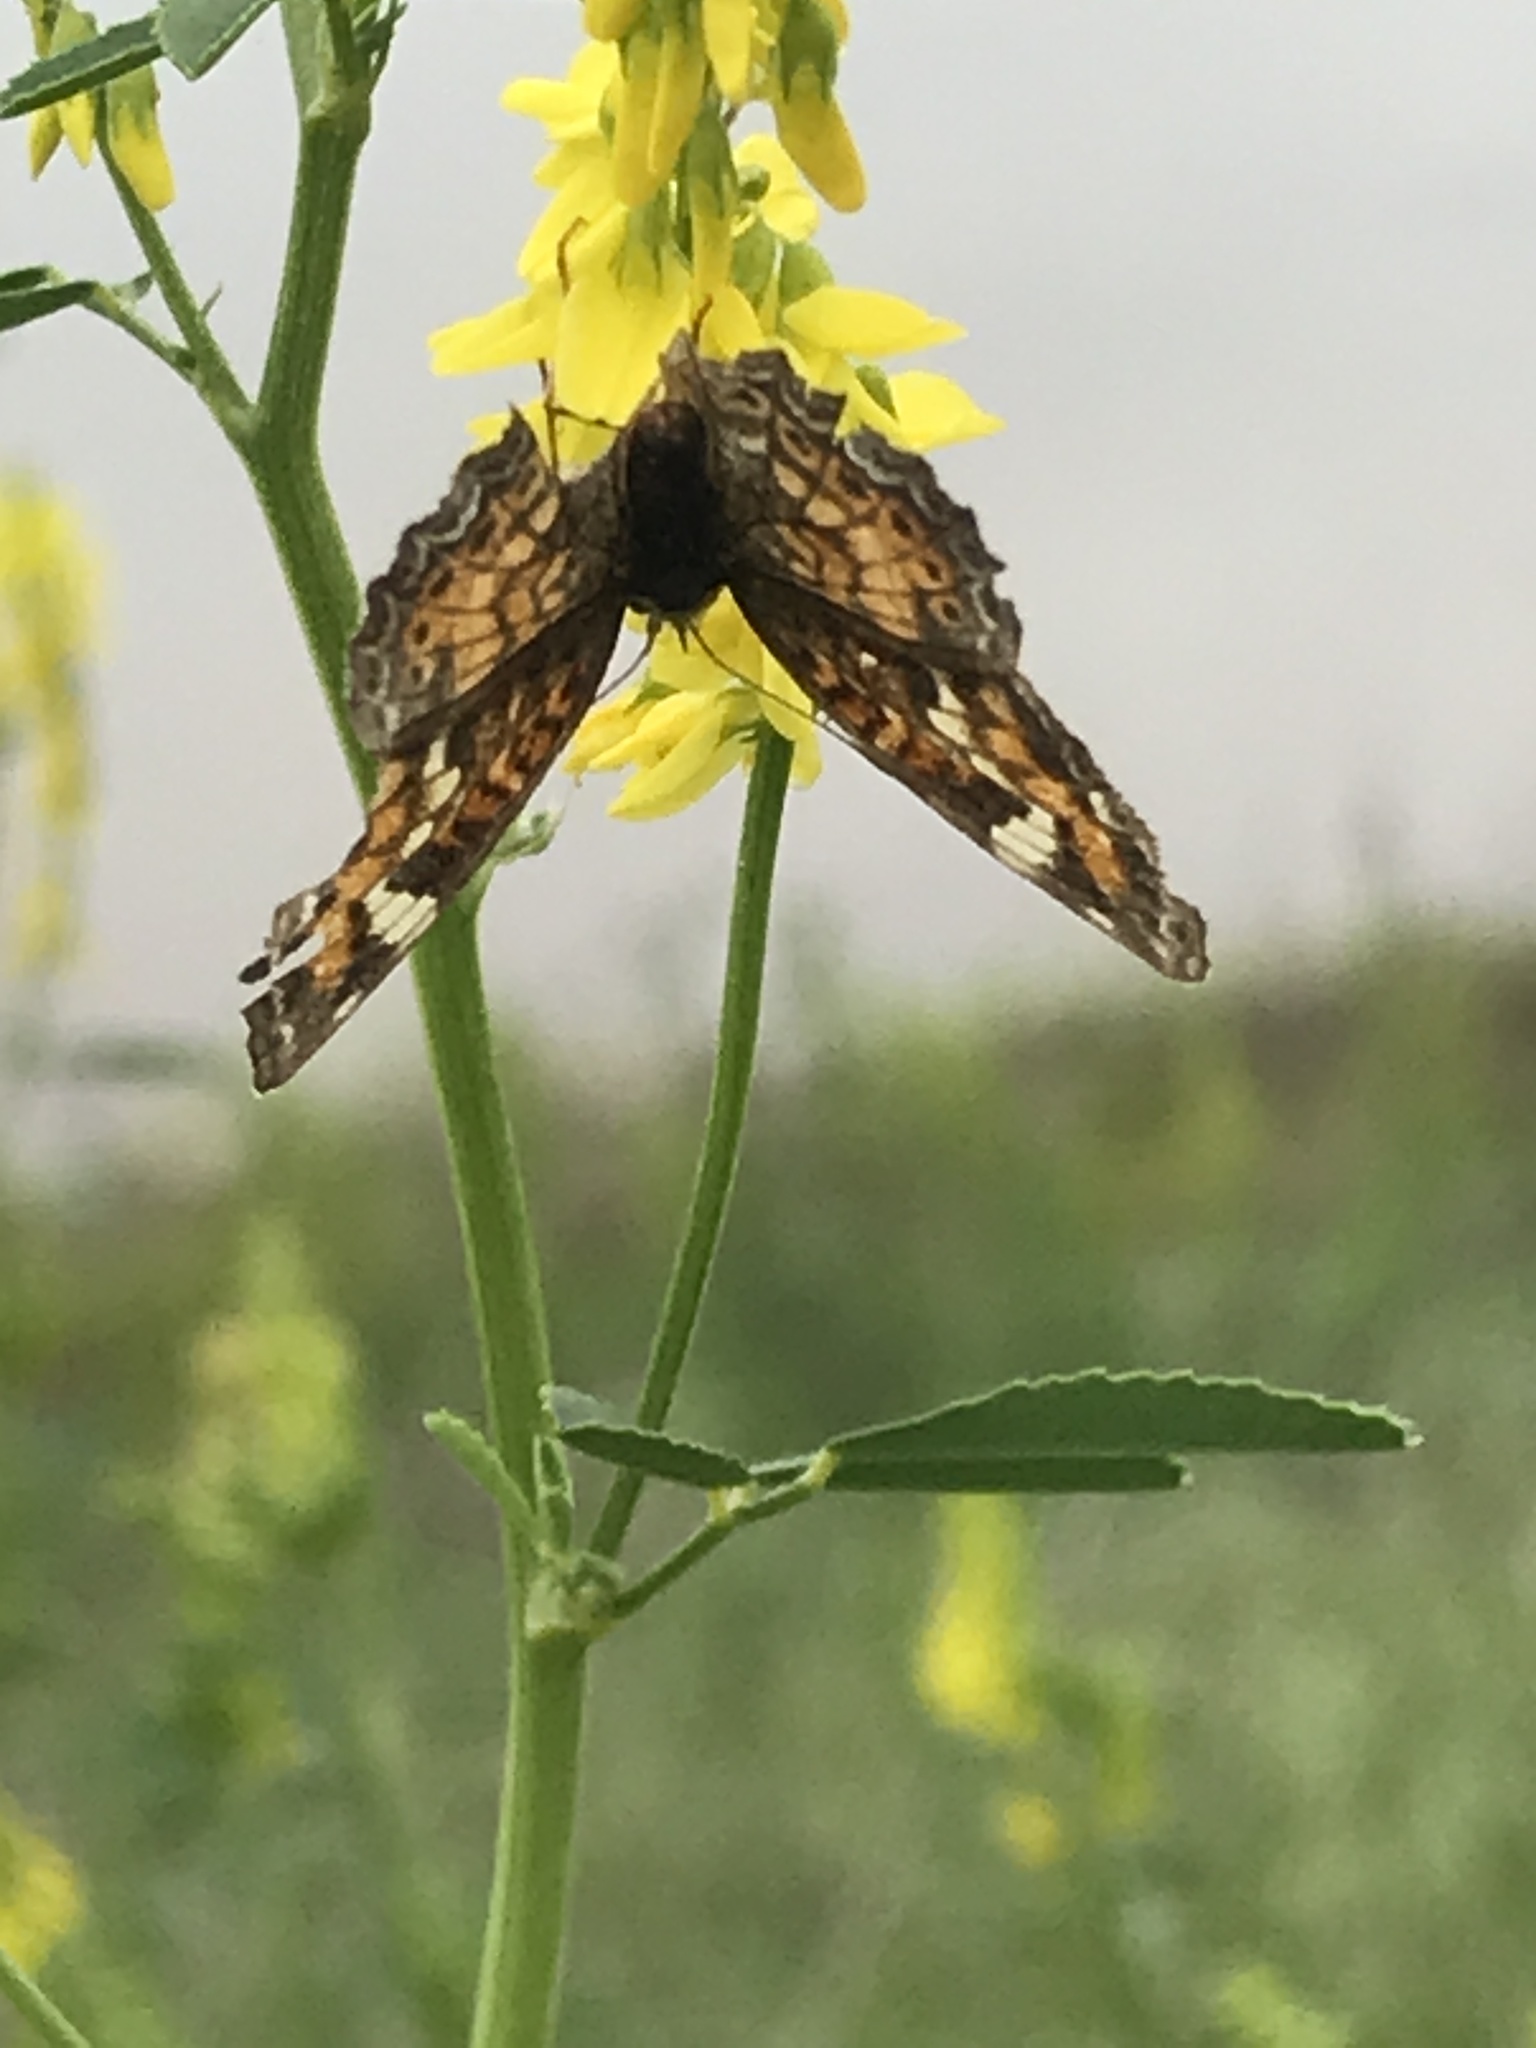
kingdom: Animalia
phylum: Arthropoda
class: Insecta
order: Lepidoptera
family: Nymphalidae
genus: Phyciodes
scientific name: Phyciodes phaon
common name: Phaon crescent
